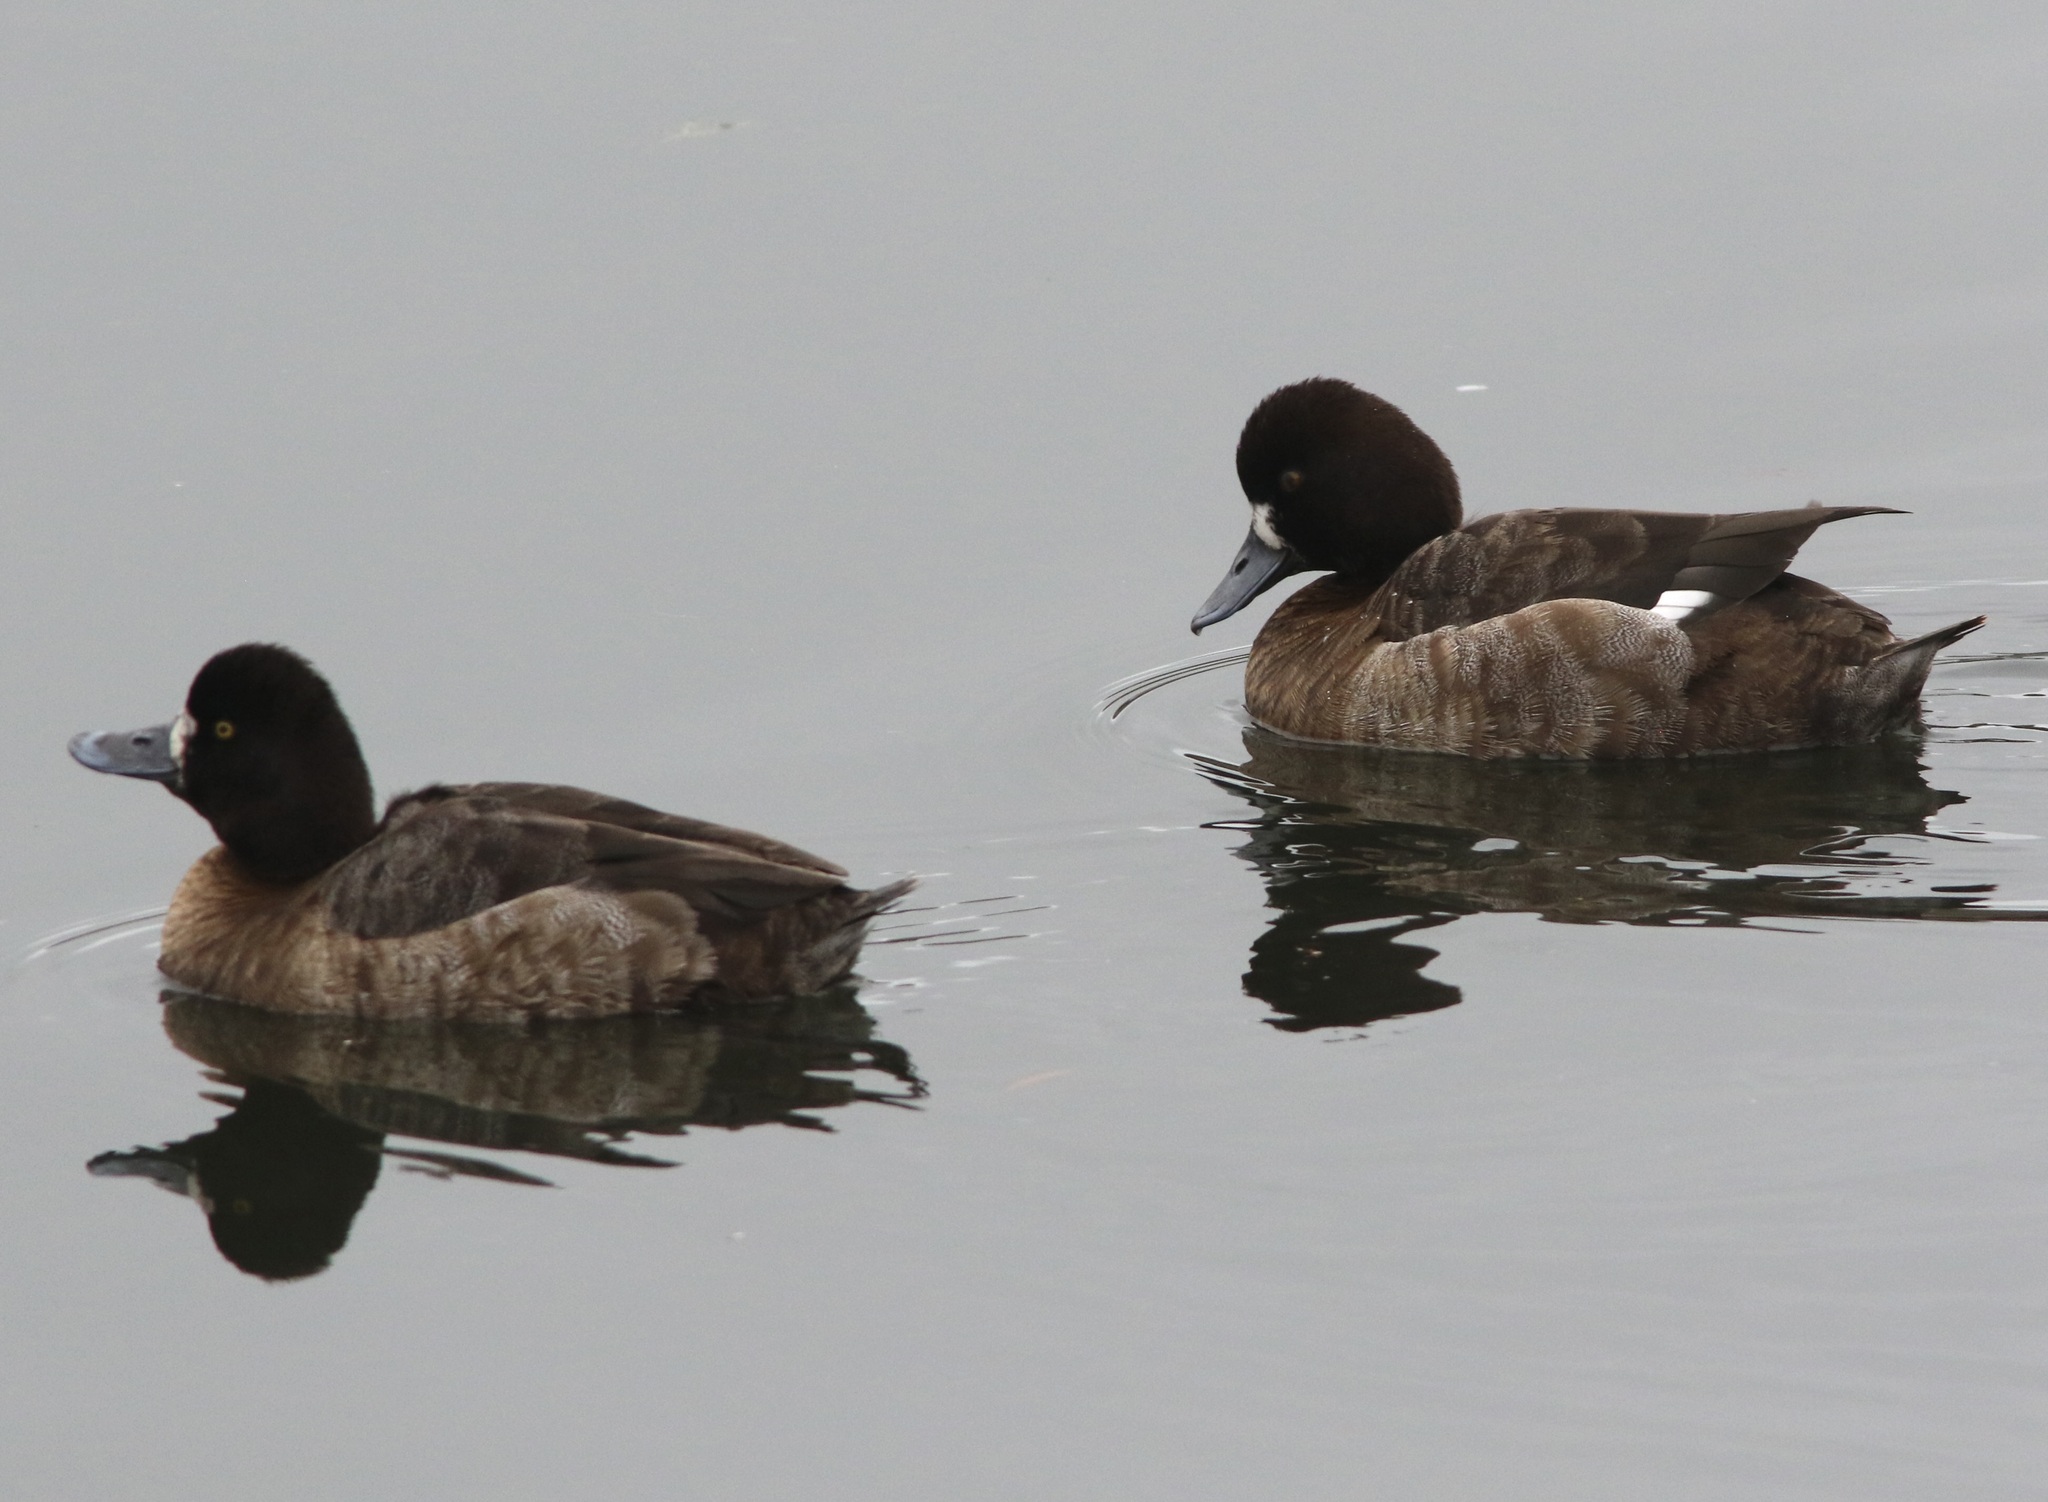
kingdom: Animalia
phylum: Chordata
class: Aves
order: Anseriformes
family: Anatidae
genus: Aythya
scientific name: Aythya affinis
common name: Lesser scaup
